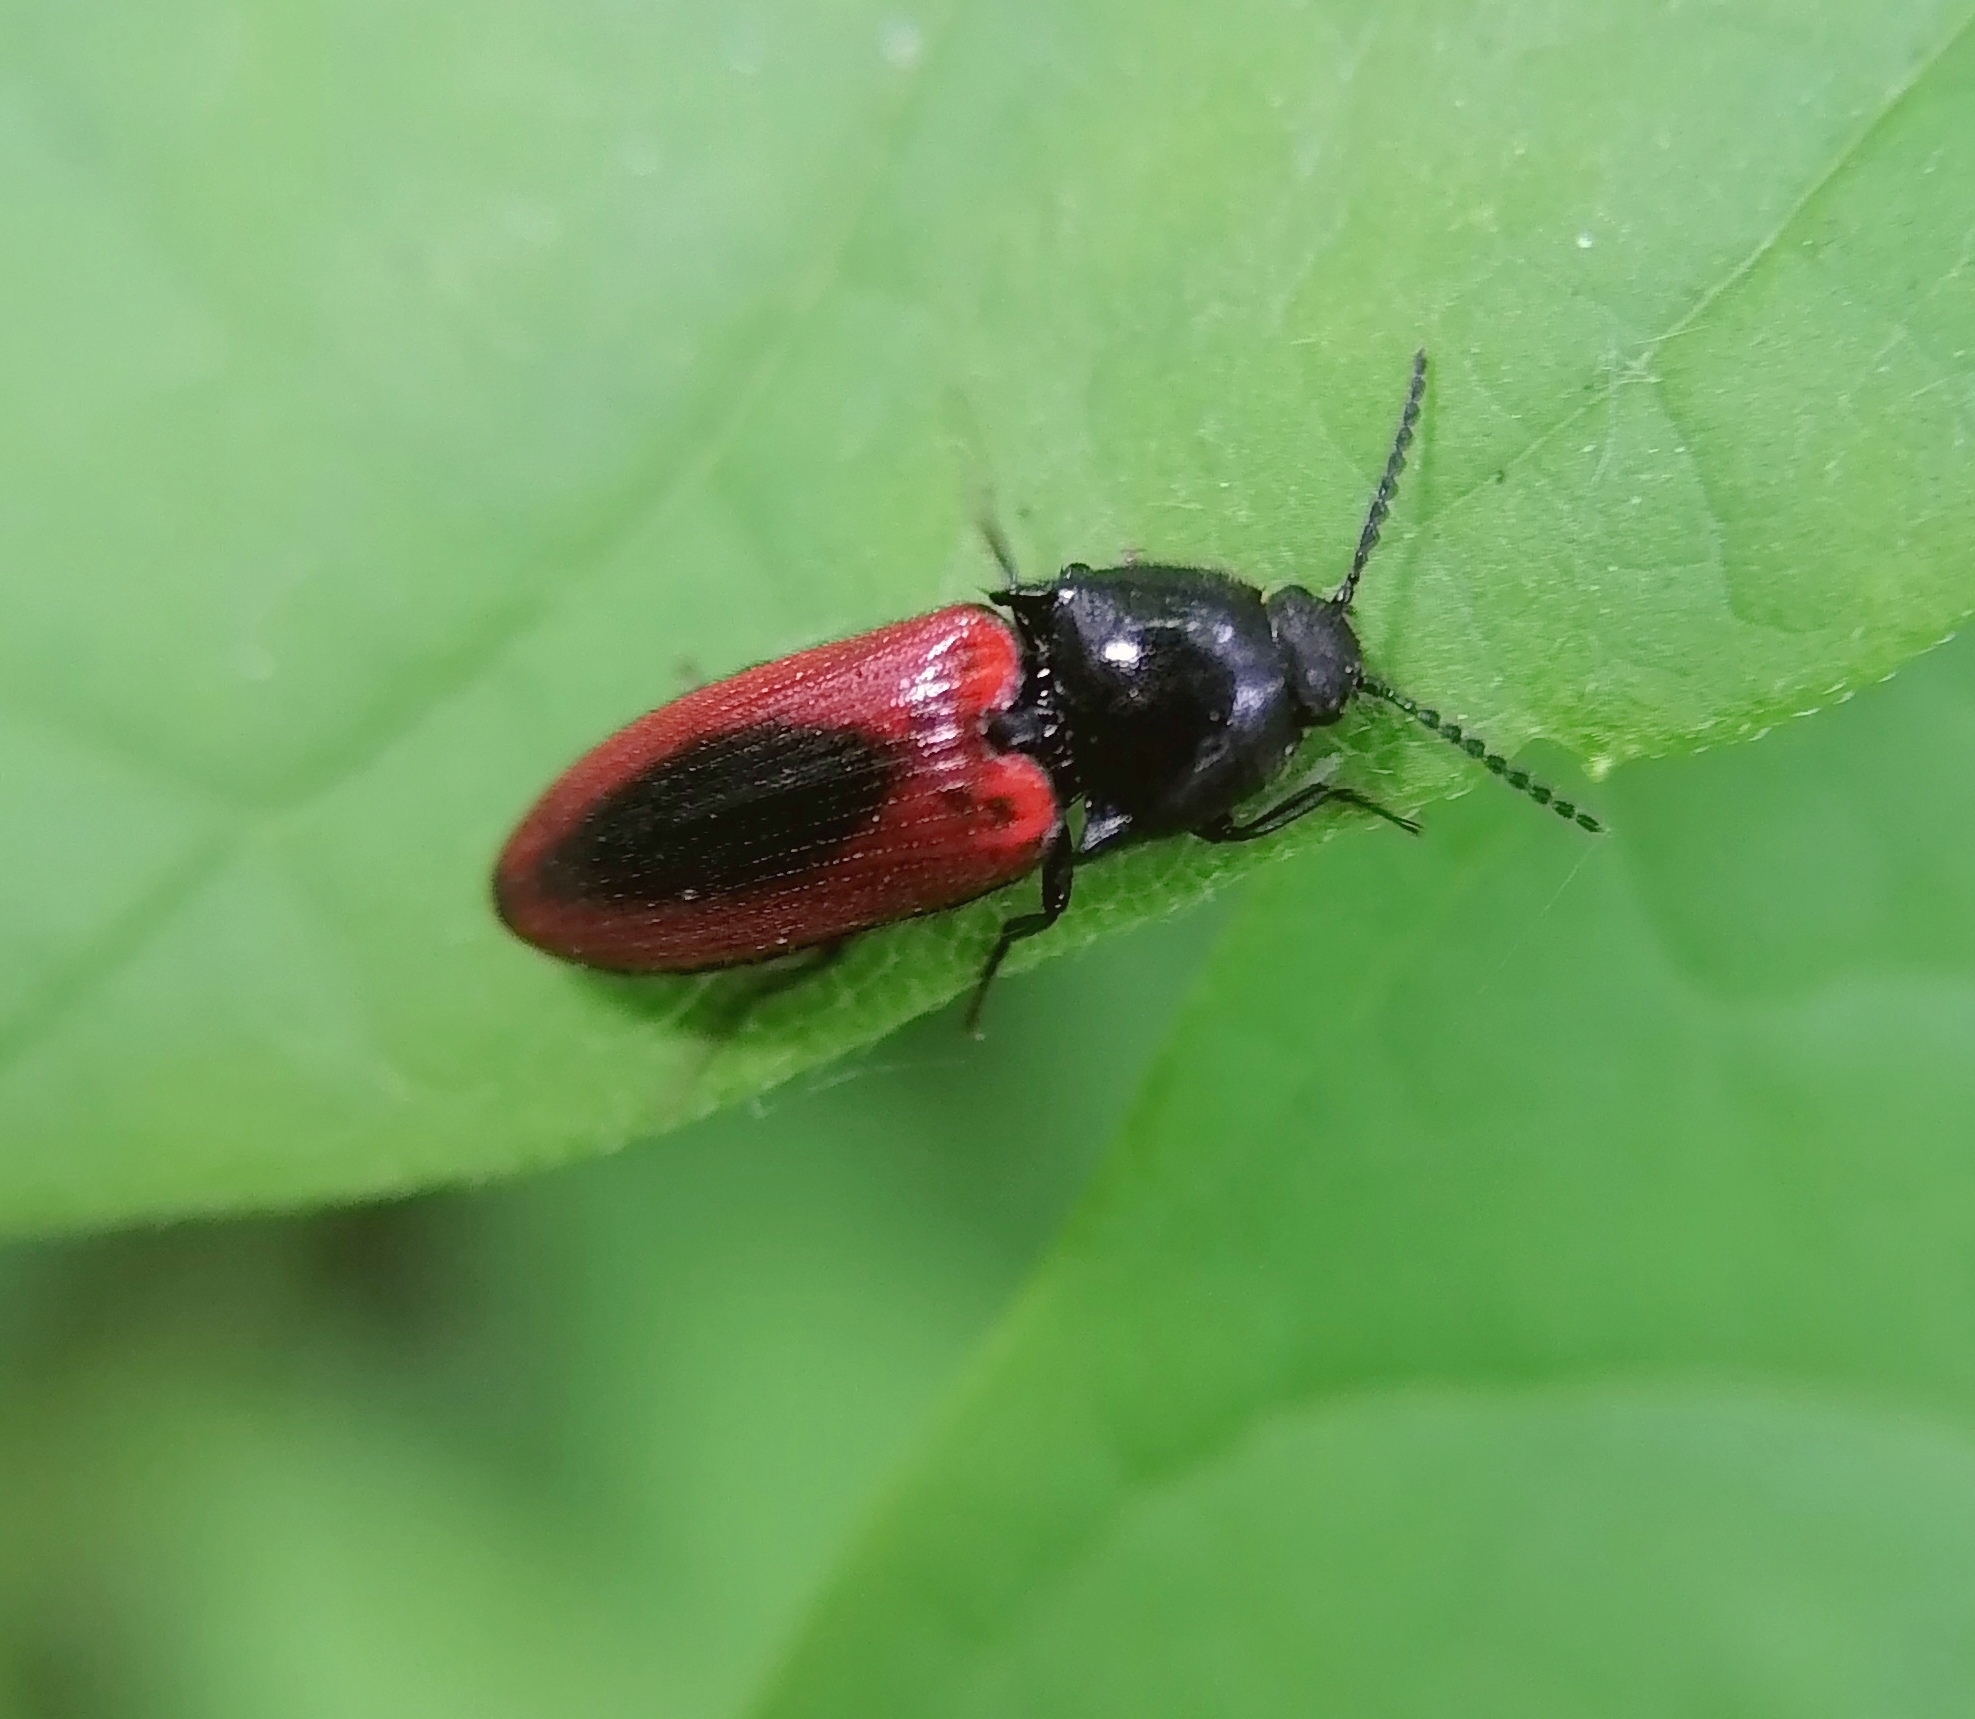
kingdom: Animalia
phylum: Arthropoda
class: Insecta
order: Coleoptera
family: Elateridae
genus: Ampedus
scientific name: Ampedus sanguinolentus
